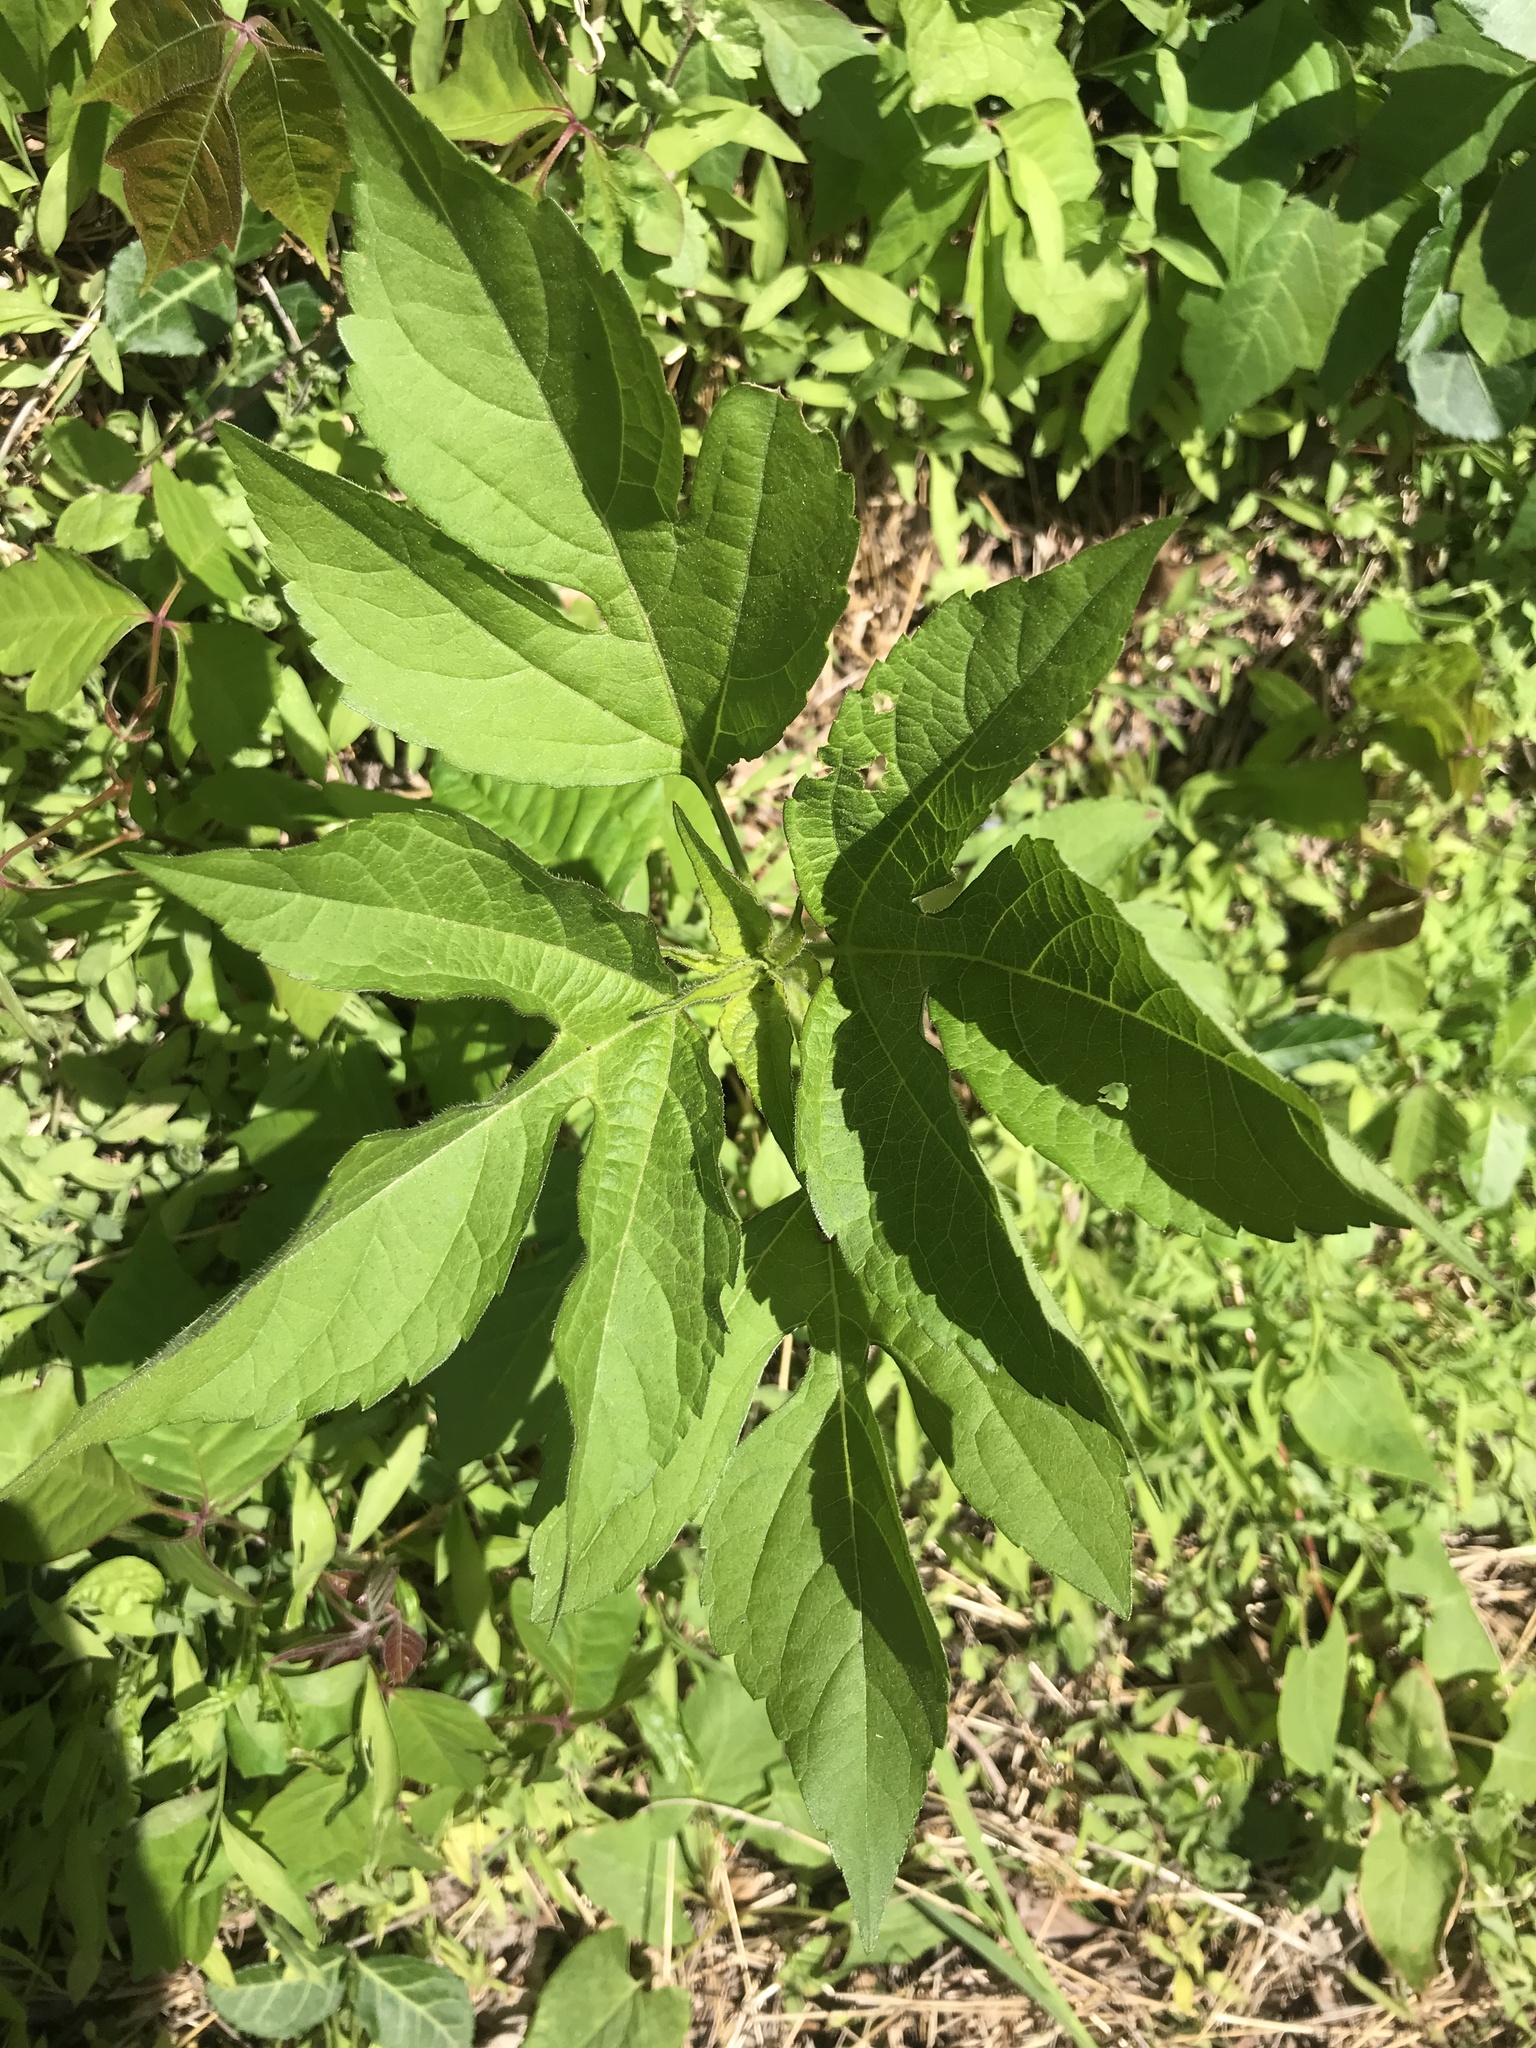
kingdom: Plantae
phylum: Tracheophyta
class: Magnoliopsida
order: Asterales
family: Asteraceae
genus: Ambrosia
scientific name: Ambrosia trifida
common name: Giant ragweed
